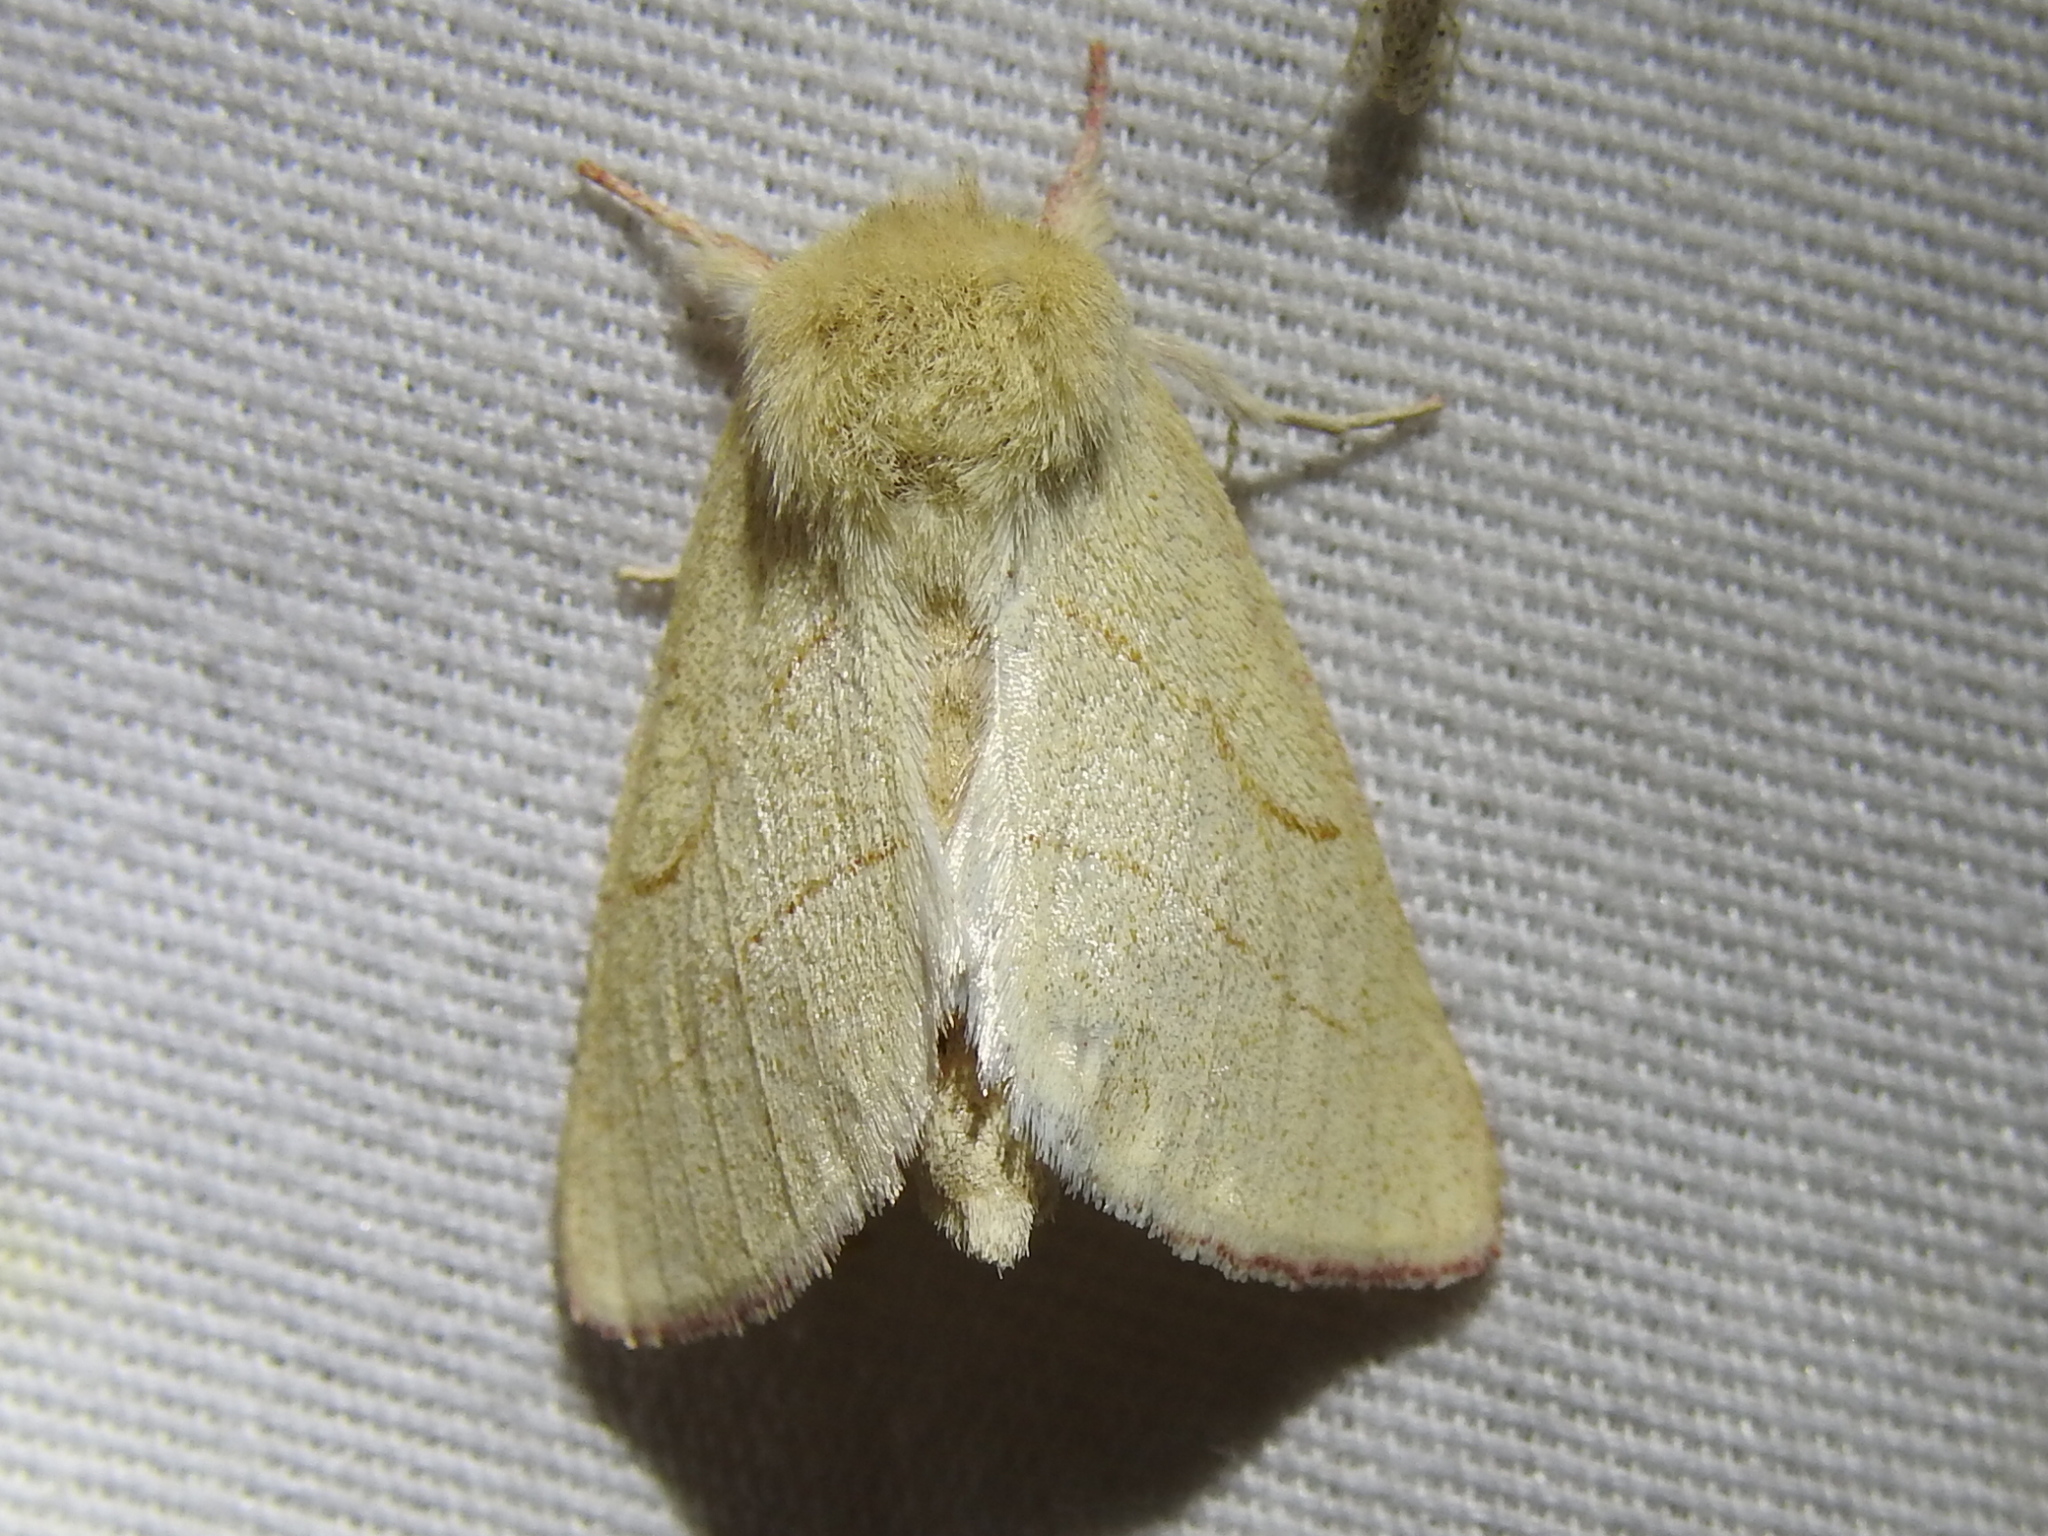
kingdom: Animalia
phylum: Arthropoda
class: Insecta
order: Lepidoptera
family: Notodontidae
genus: Hyparpax
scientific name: Hyparpax aurostriata
